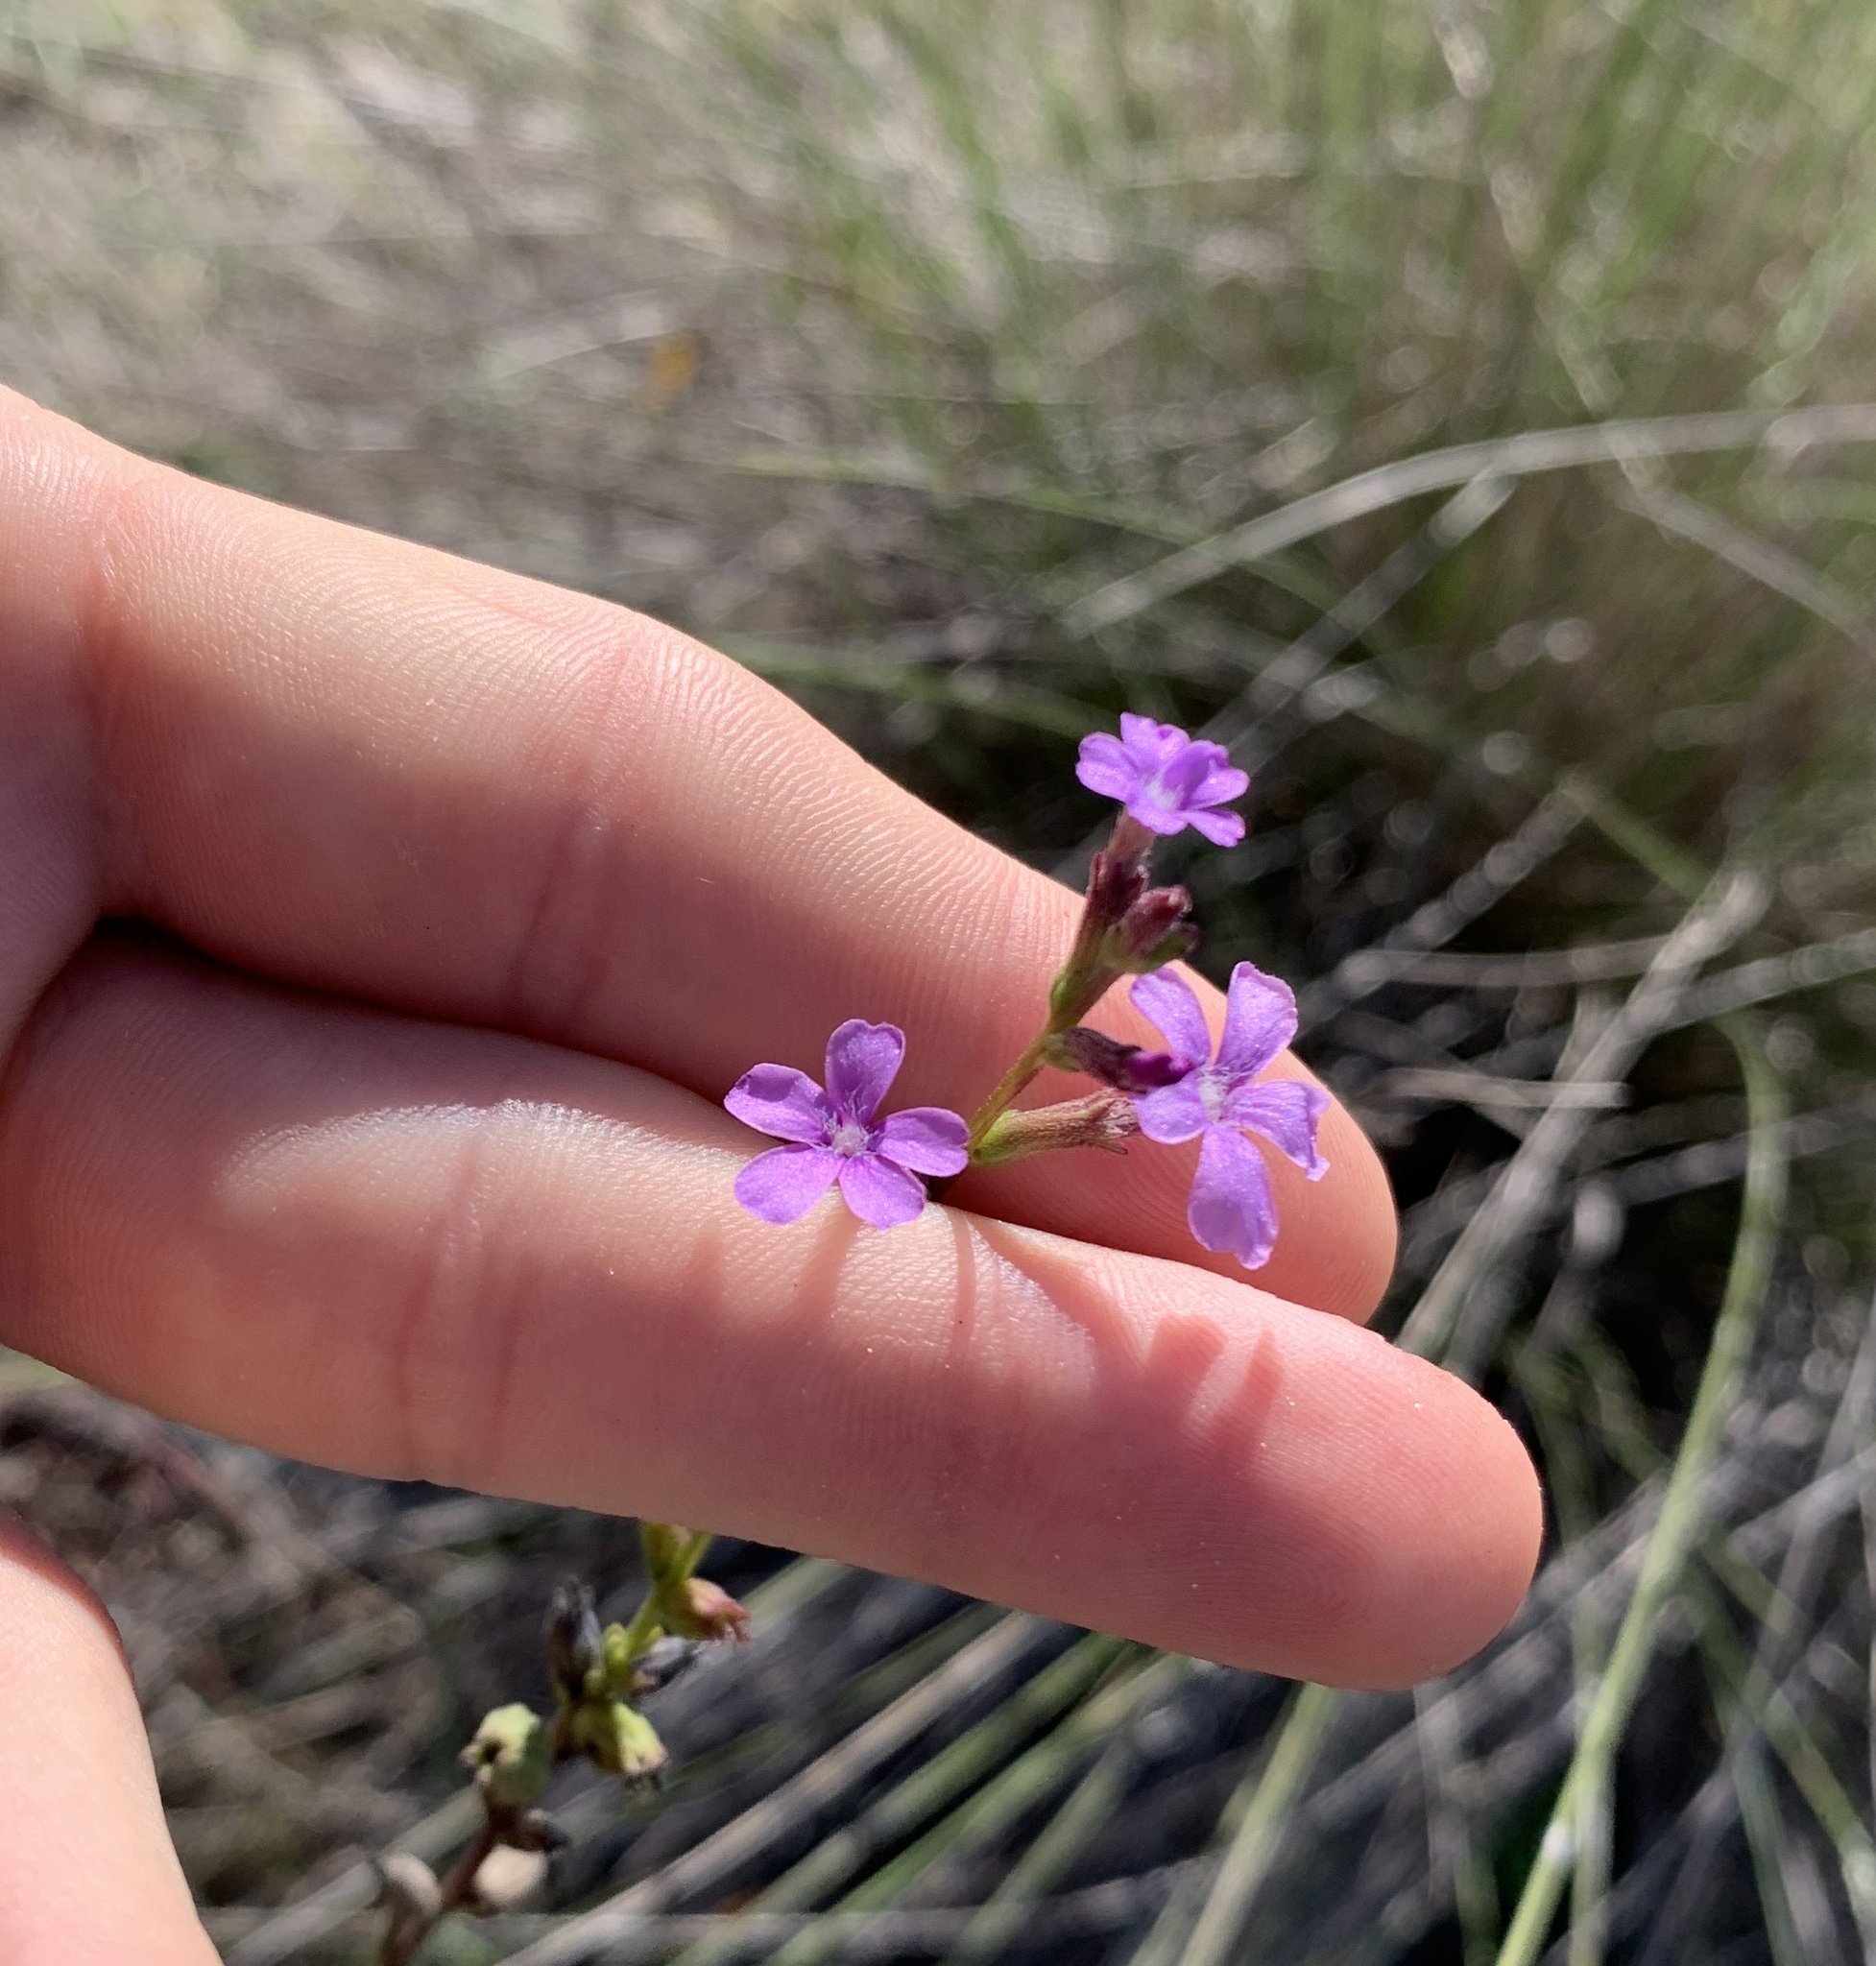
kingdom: Plantae
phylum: Tracheophyta
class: Magnoliopsida
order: Lamiales
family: Orobanchaceae
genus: Buchnera
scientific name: Buchnera floridana
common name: Florida bluehearts
